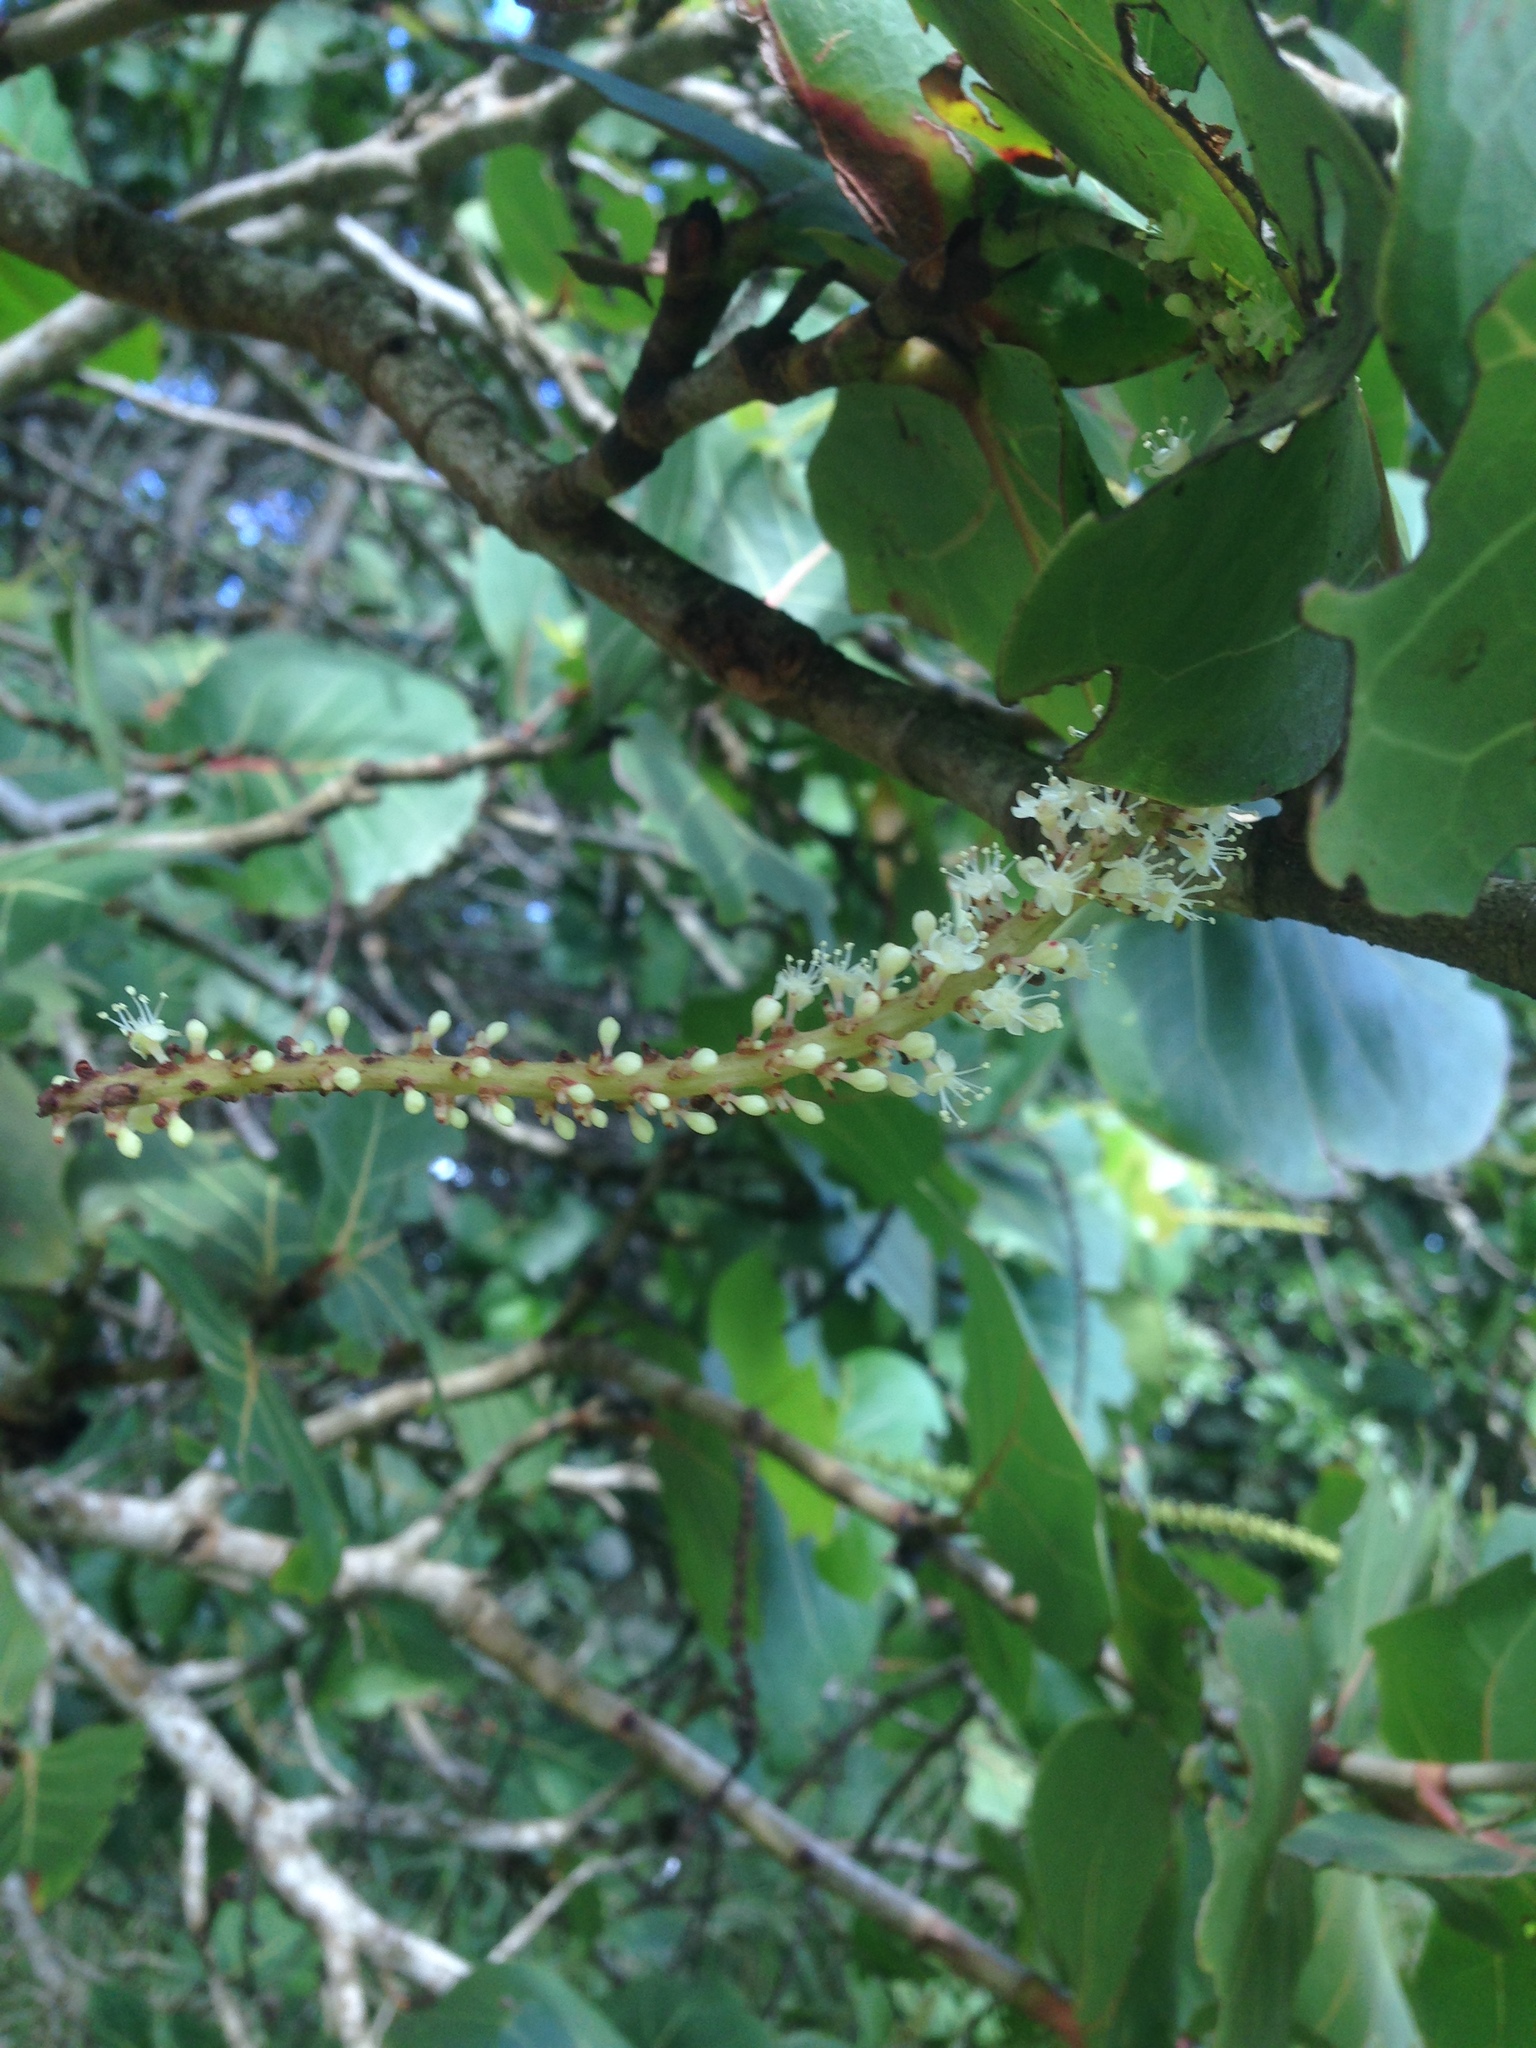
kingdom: Plantae
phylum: Tracheophyta
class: Magnoliopsida
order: Caryophyllales
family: Polygonaceae
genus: Coccoloba
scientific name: Coccoloba uvifera
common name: Seagrape
